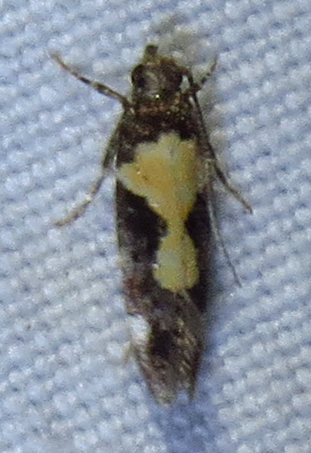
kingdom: Animalia
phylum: Arthropoda
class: Insecta
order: Lepidoptera
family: Gelechiidae
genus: Stegasta
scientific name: Stegasta bosqueella
